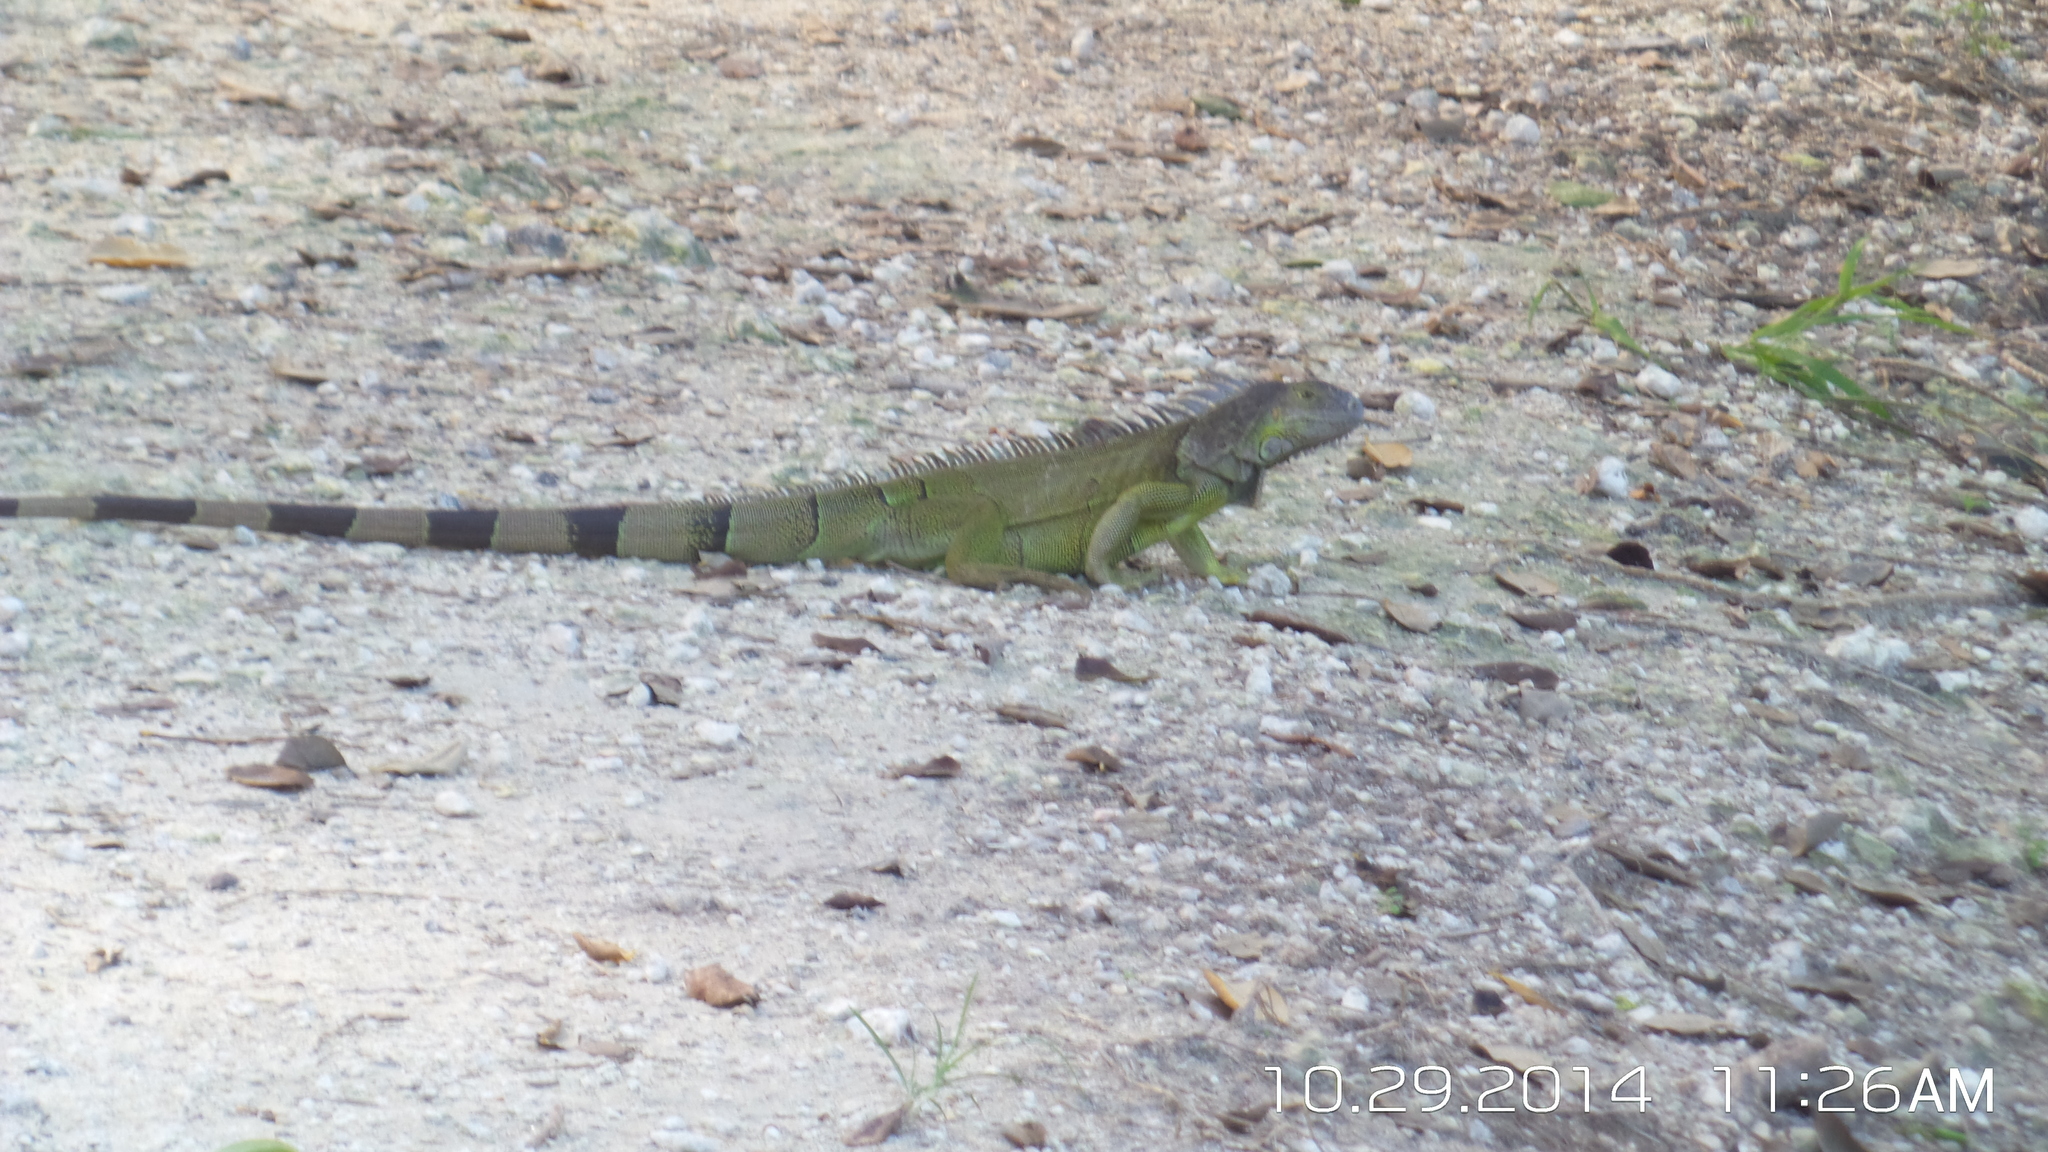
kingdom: Animalia
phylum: Chordata
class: Squamata
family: Iguanidae
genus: Iguana
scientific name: Iguana iguana
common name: Green iguana
